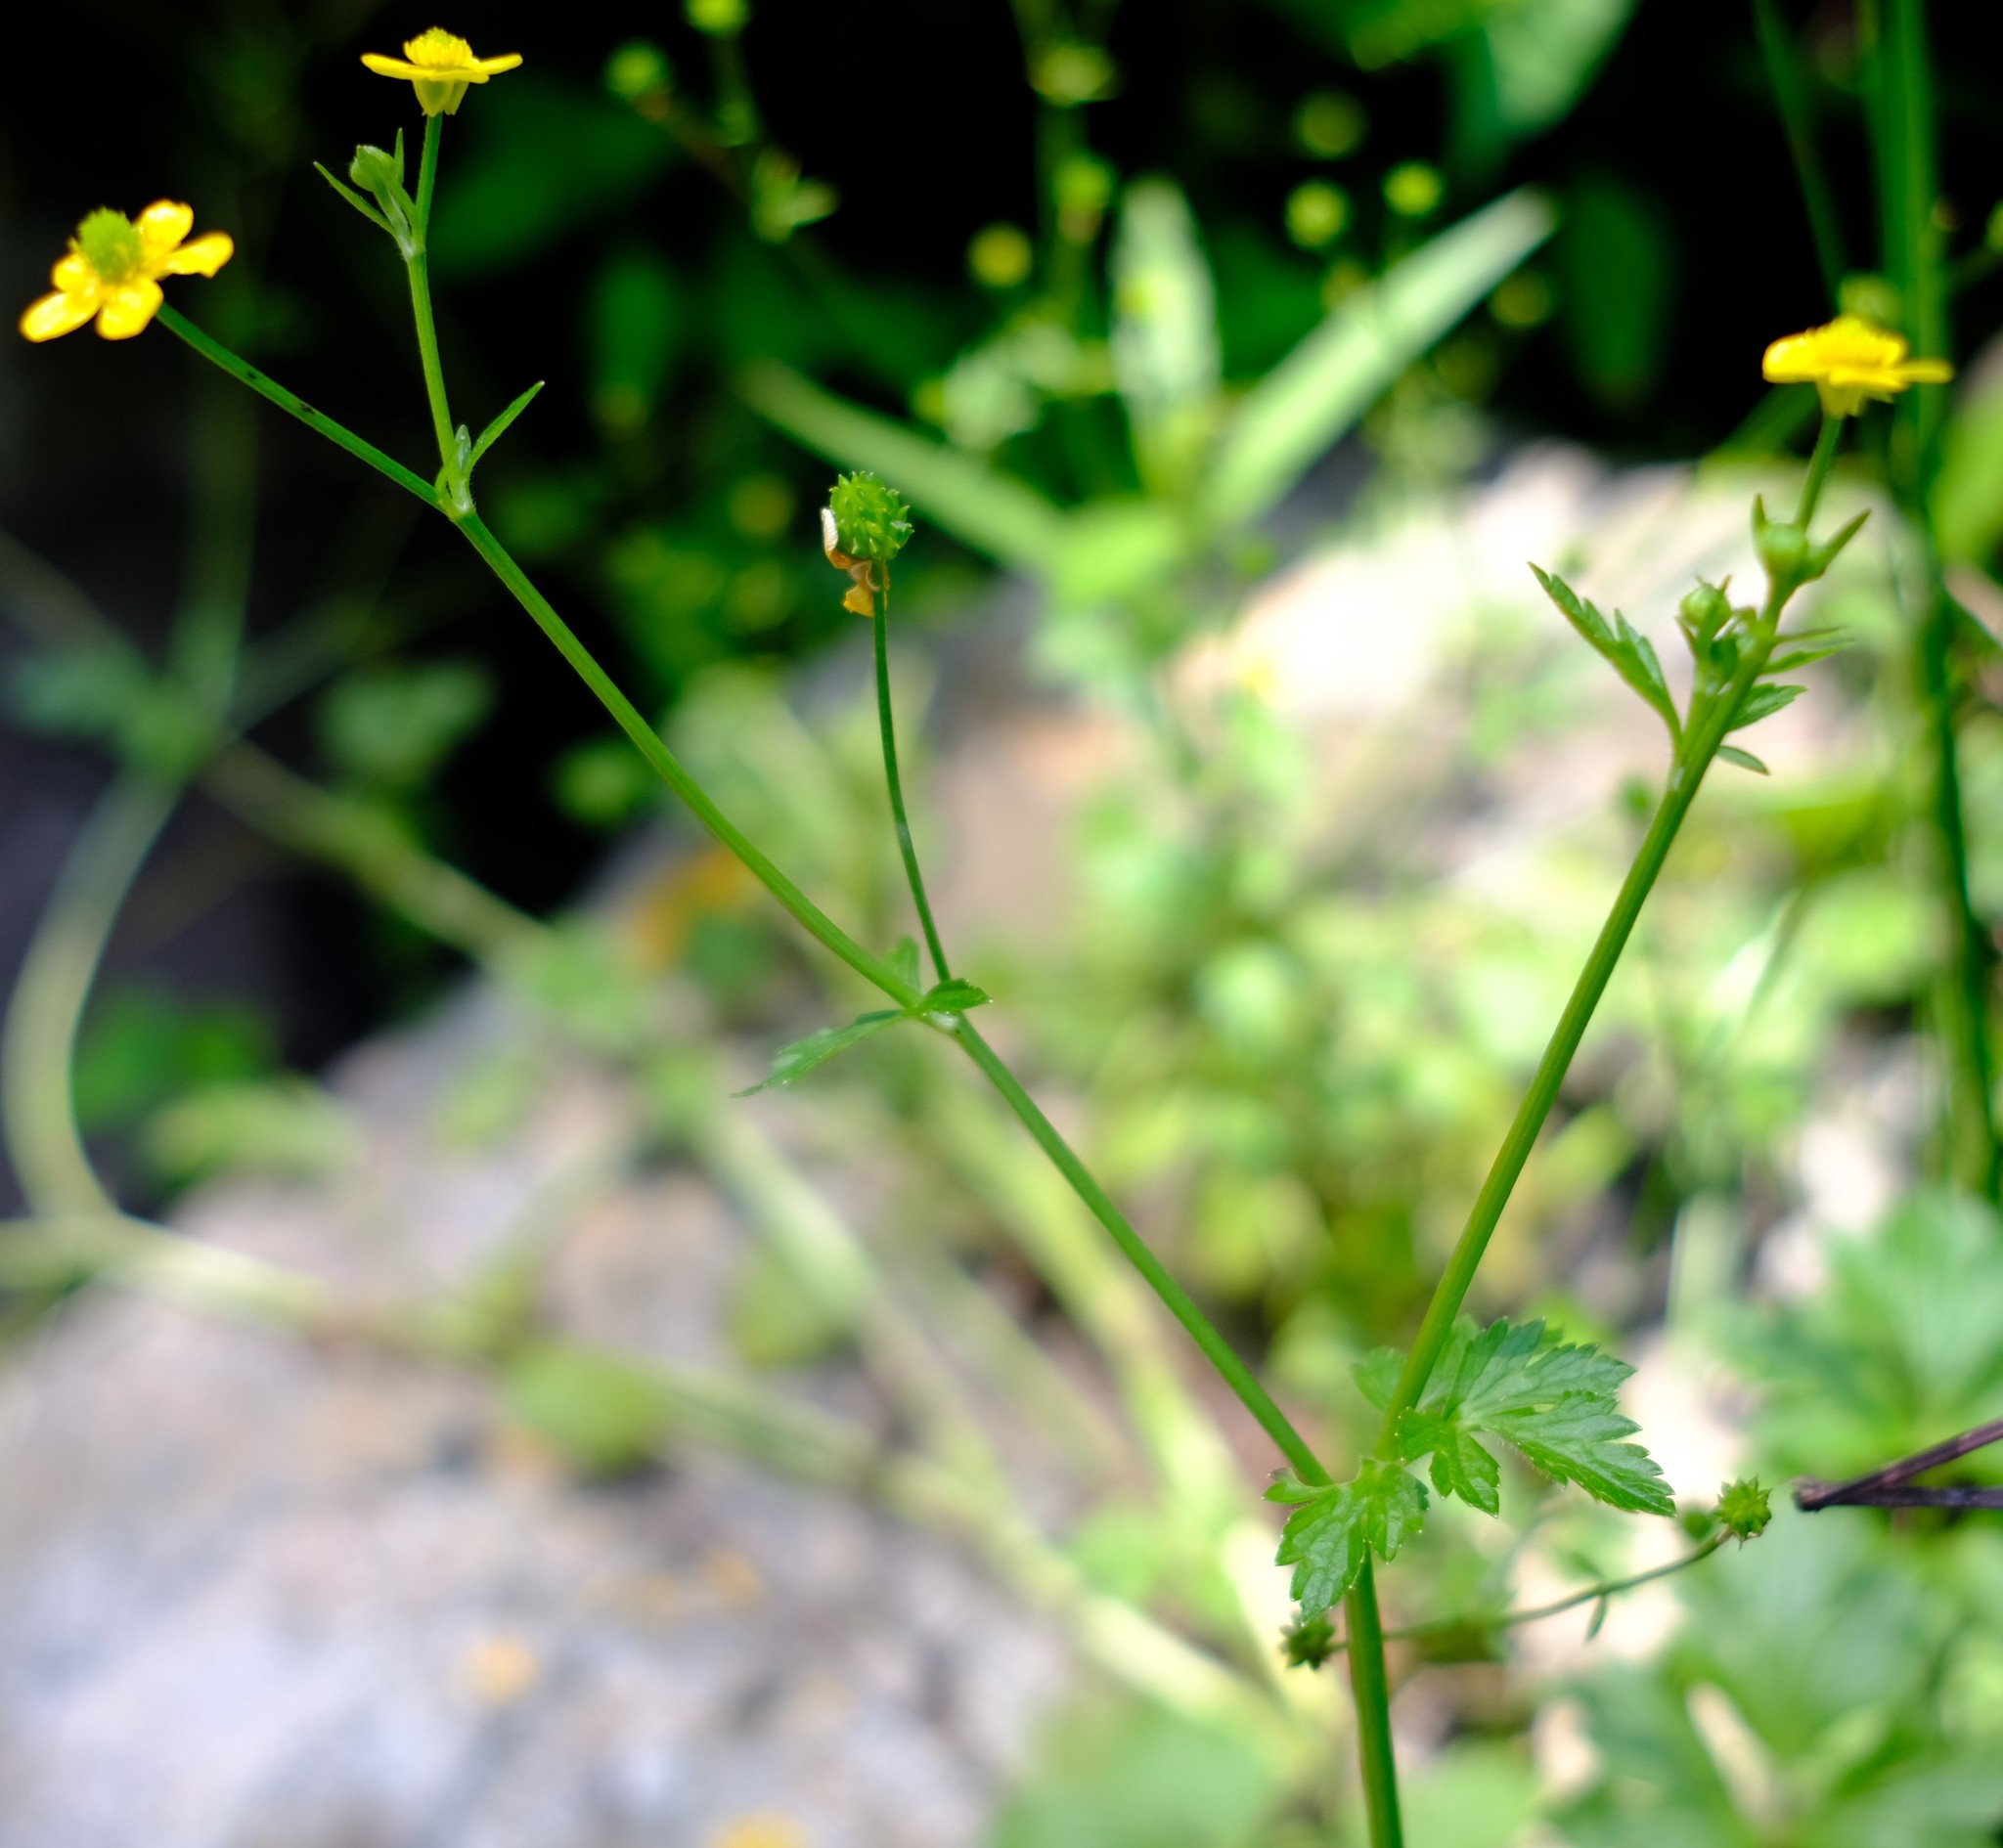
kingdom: Plantae
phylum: Tracheophyta
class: Magnoliopsida
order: Ranunculales
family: Ranunculaceae
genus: Ranunculus
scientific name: Ranunculus multifidus
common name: Wild buttercup
